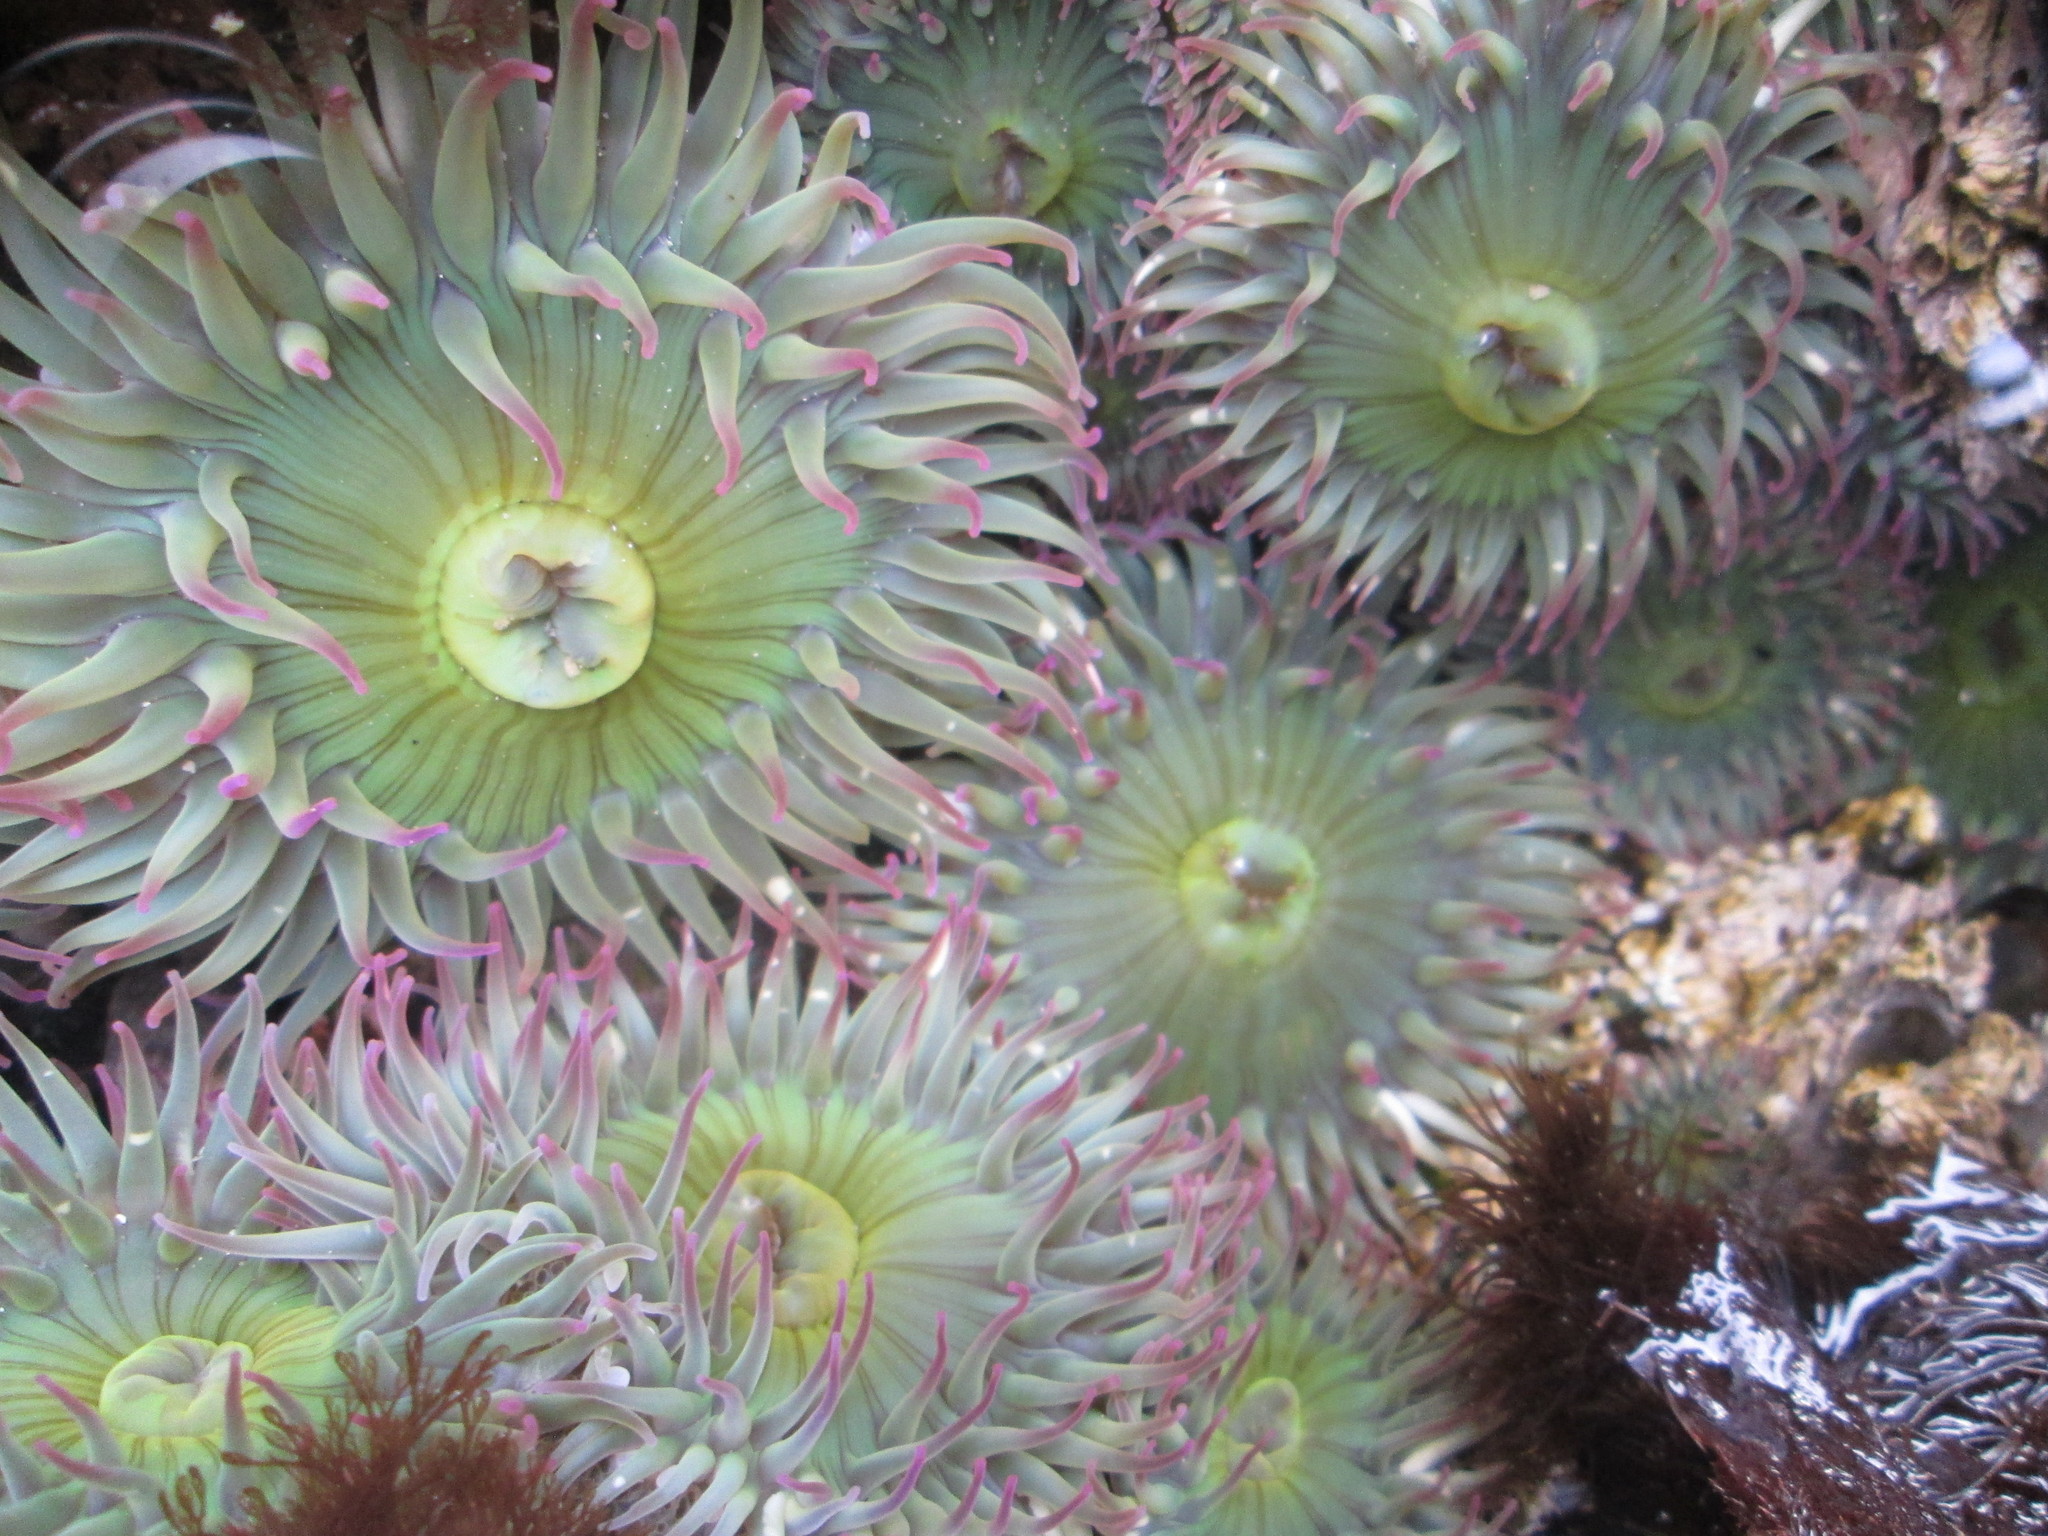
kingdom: Animalia
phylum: Cnidaria
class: Anthozoa
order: Actiniaria
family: Actiniidae
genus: Anthopleura
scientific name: Anthopleura elegantissima
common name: Clonal anemone
